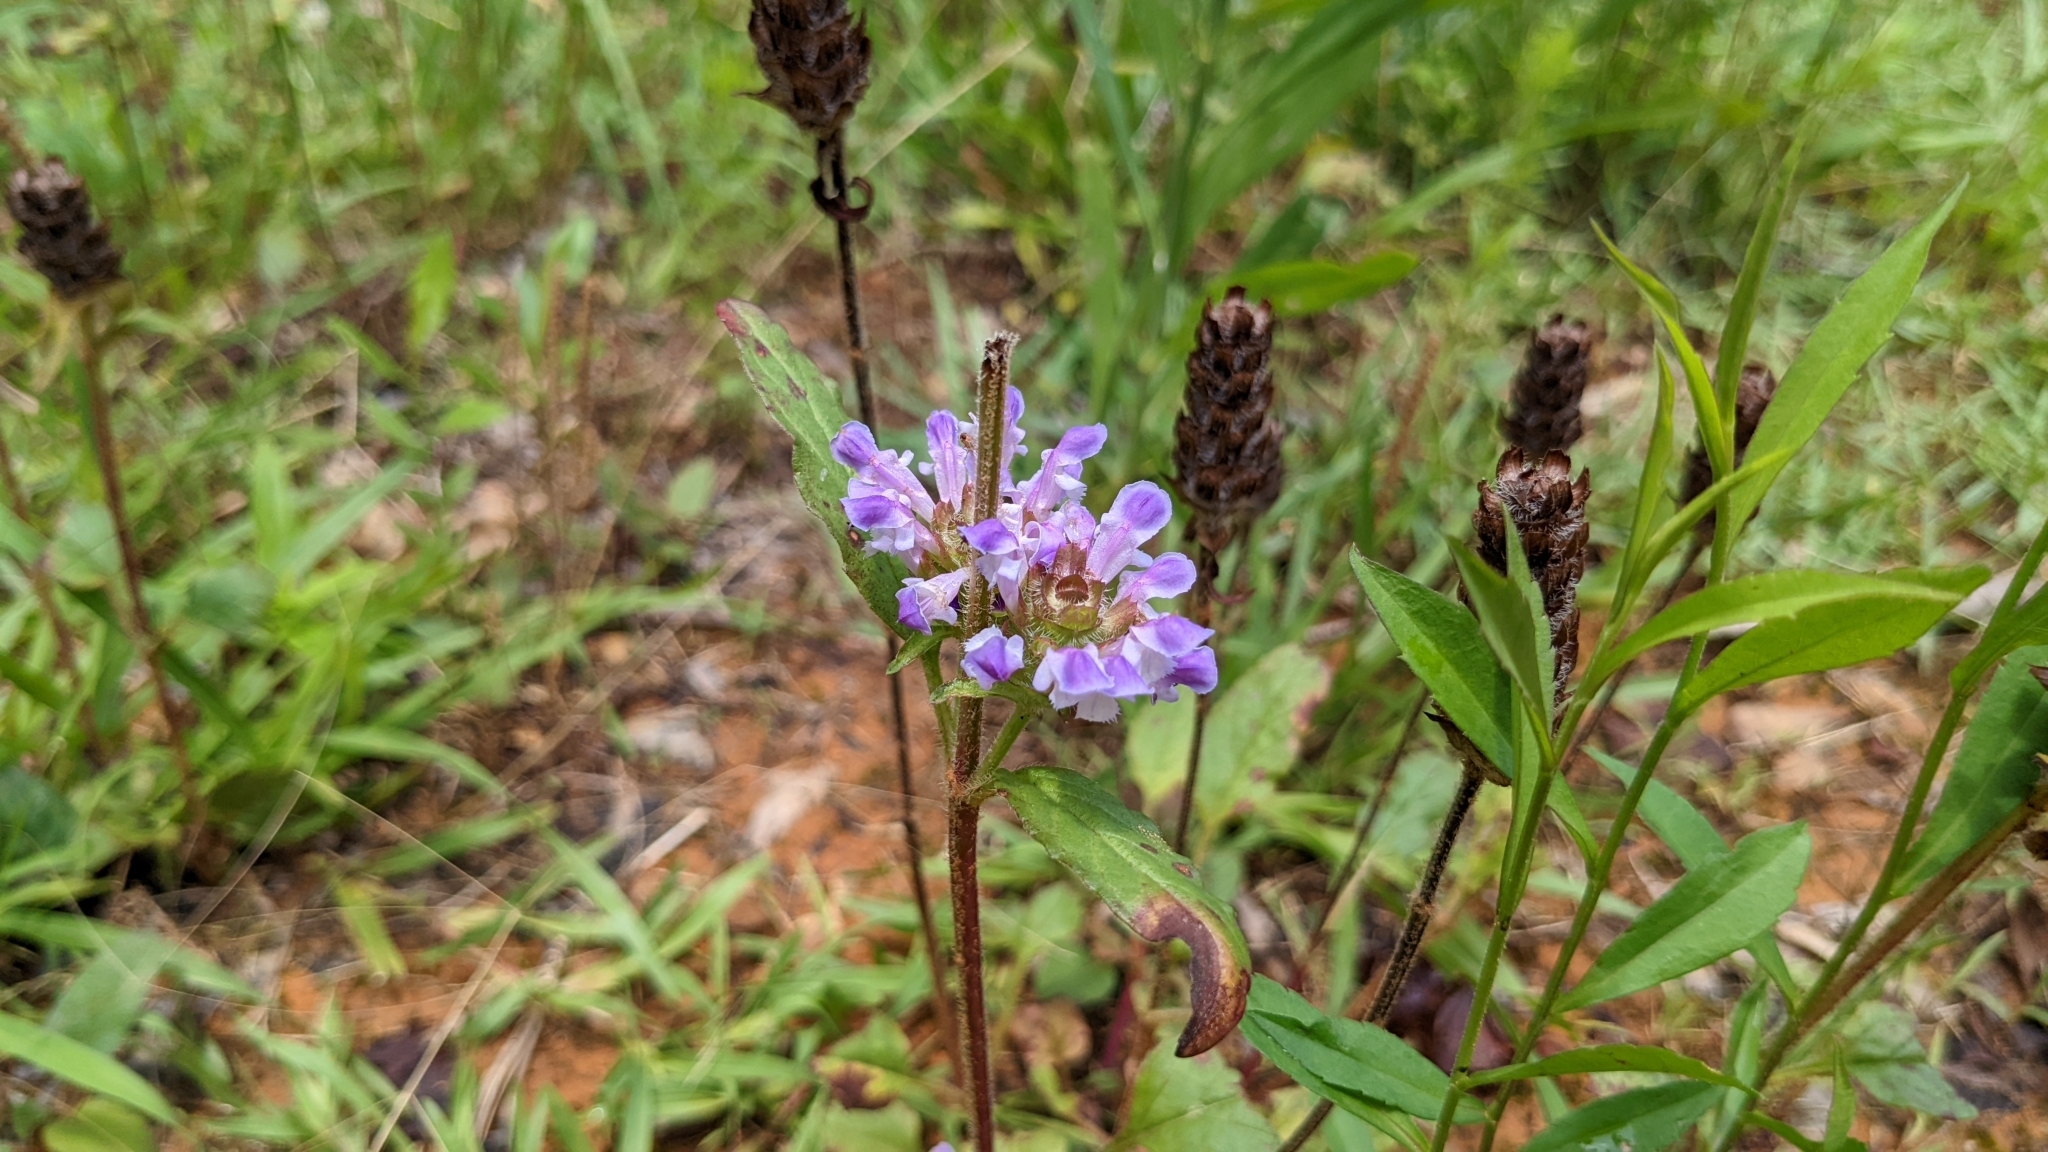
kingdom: Plantae
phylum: Tracheophyta
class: Magnoliopsida
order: Lamiales
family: Lamiaceae
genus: Prunella
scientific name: Prunella vulgaris
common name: Heal-all
